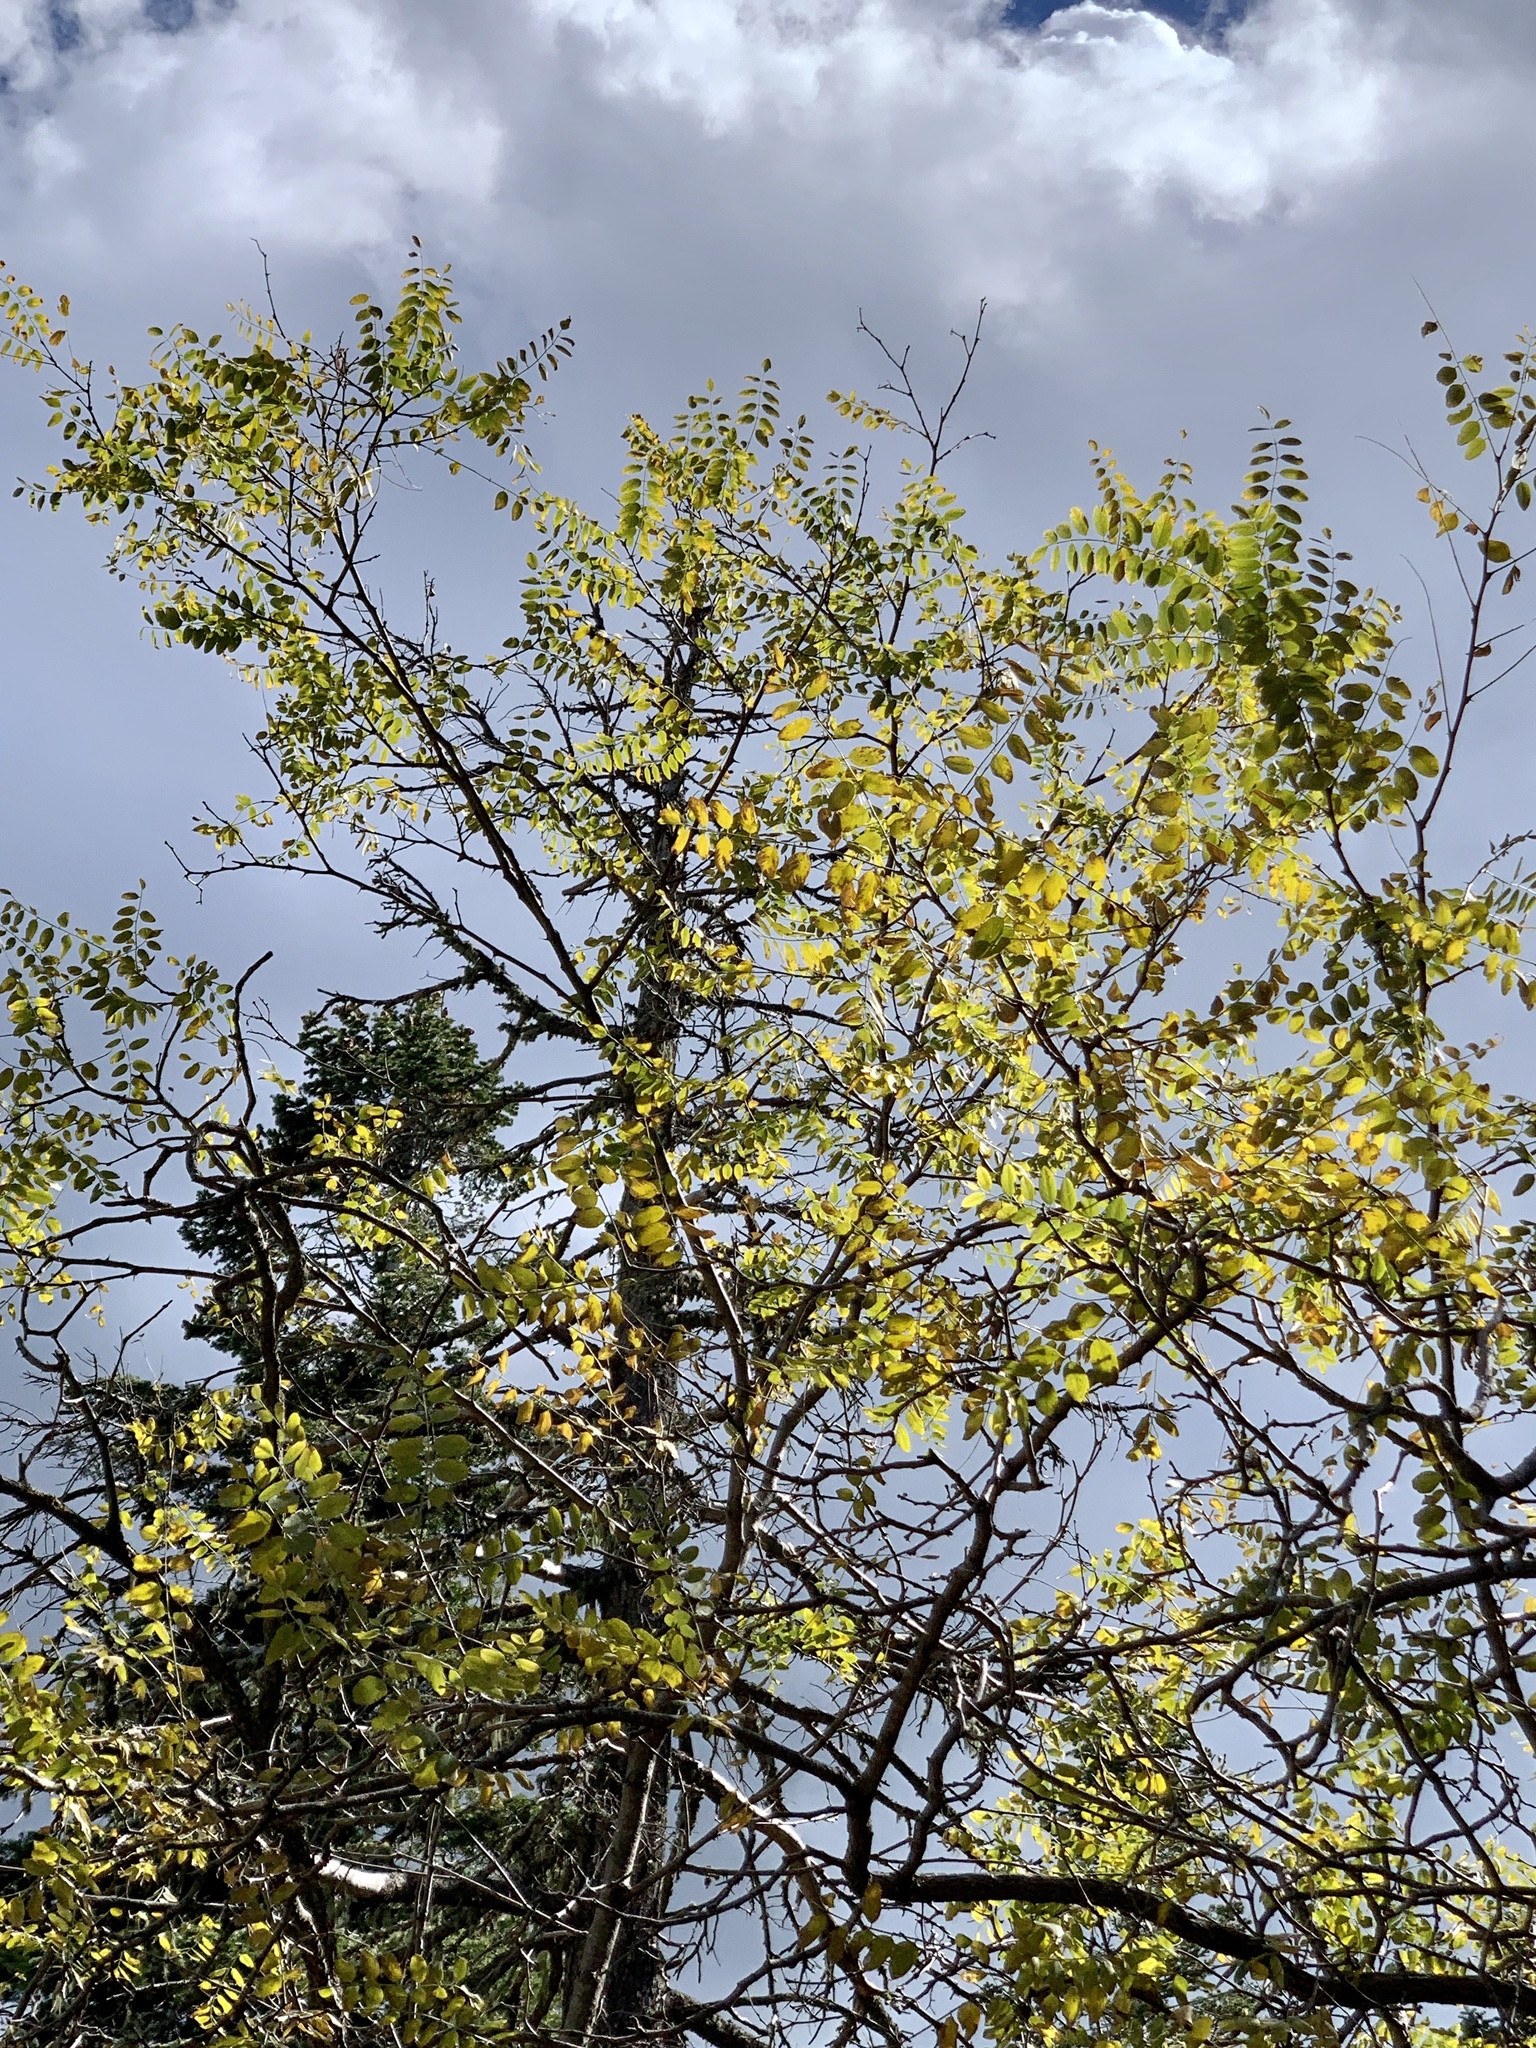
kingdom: Plantae
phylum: Tracheophyta
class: Magnoliopsida
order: Malpighiales
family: Salicaceae
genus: Populus
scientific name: Populus tremuloides
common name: Quaking aspen
